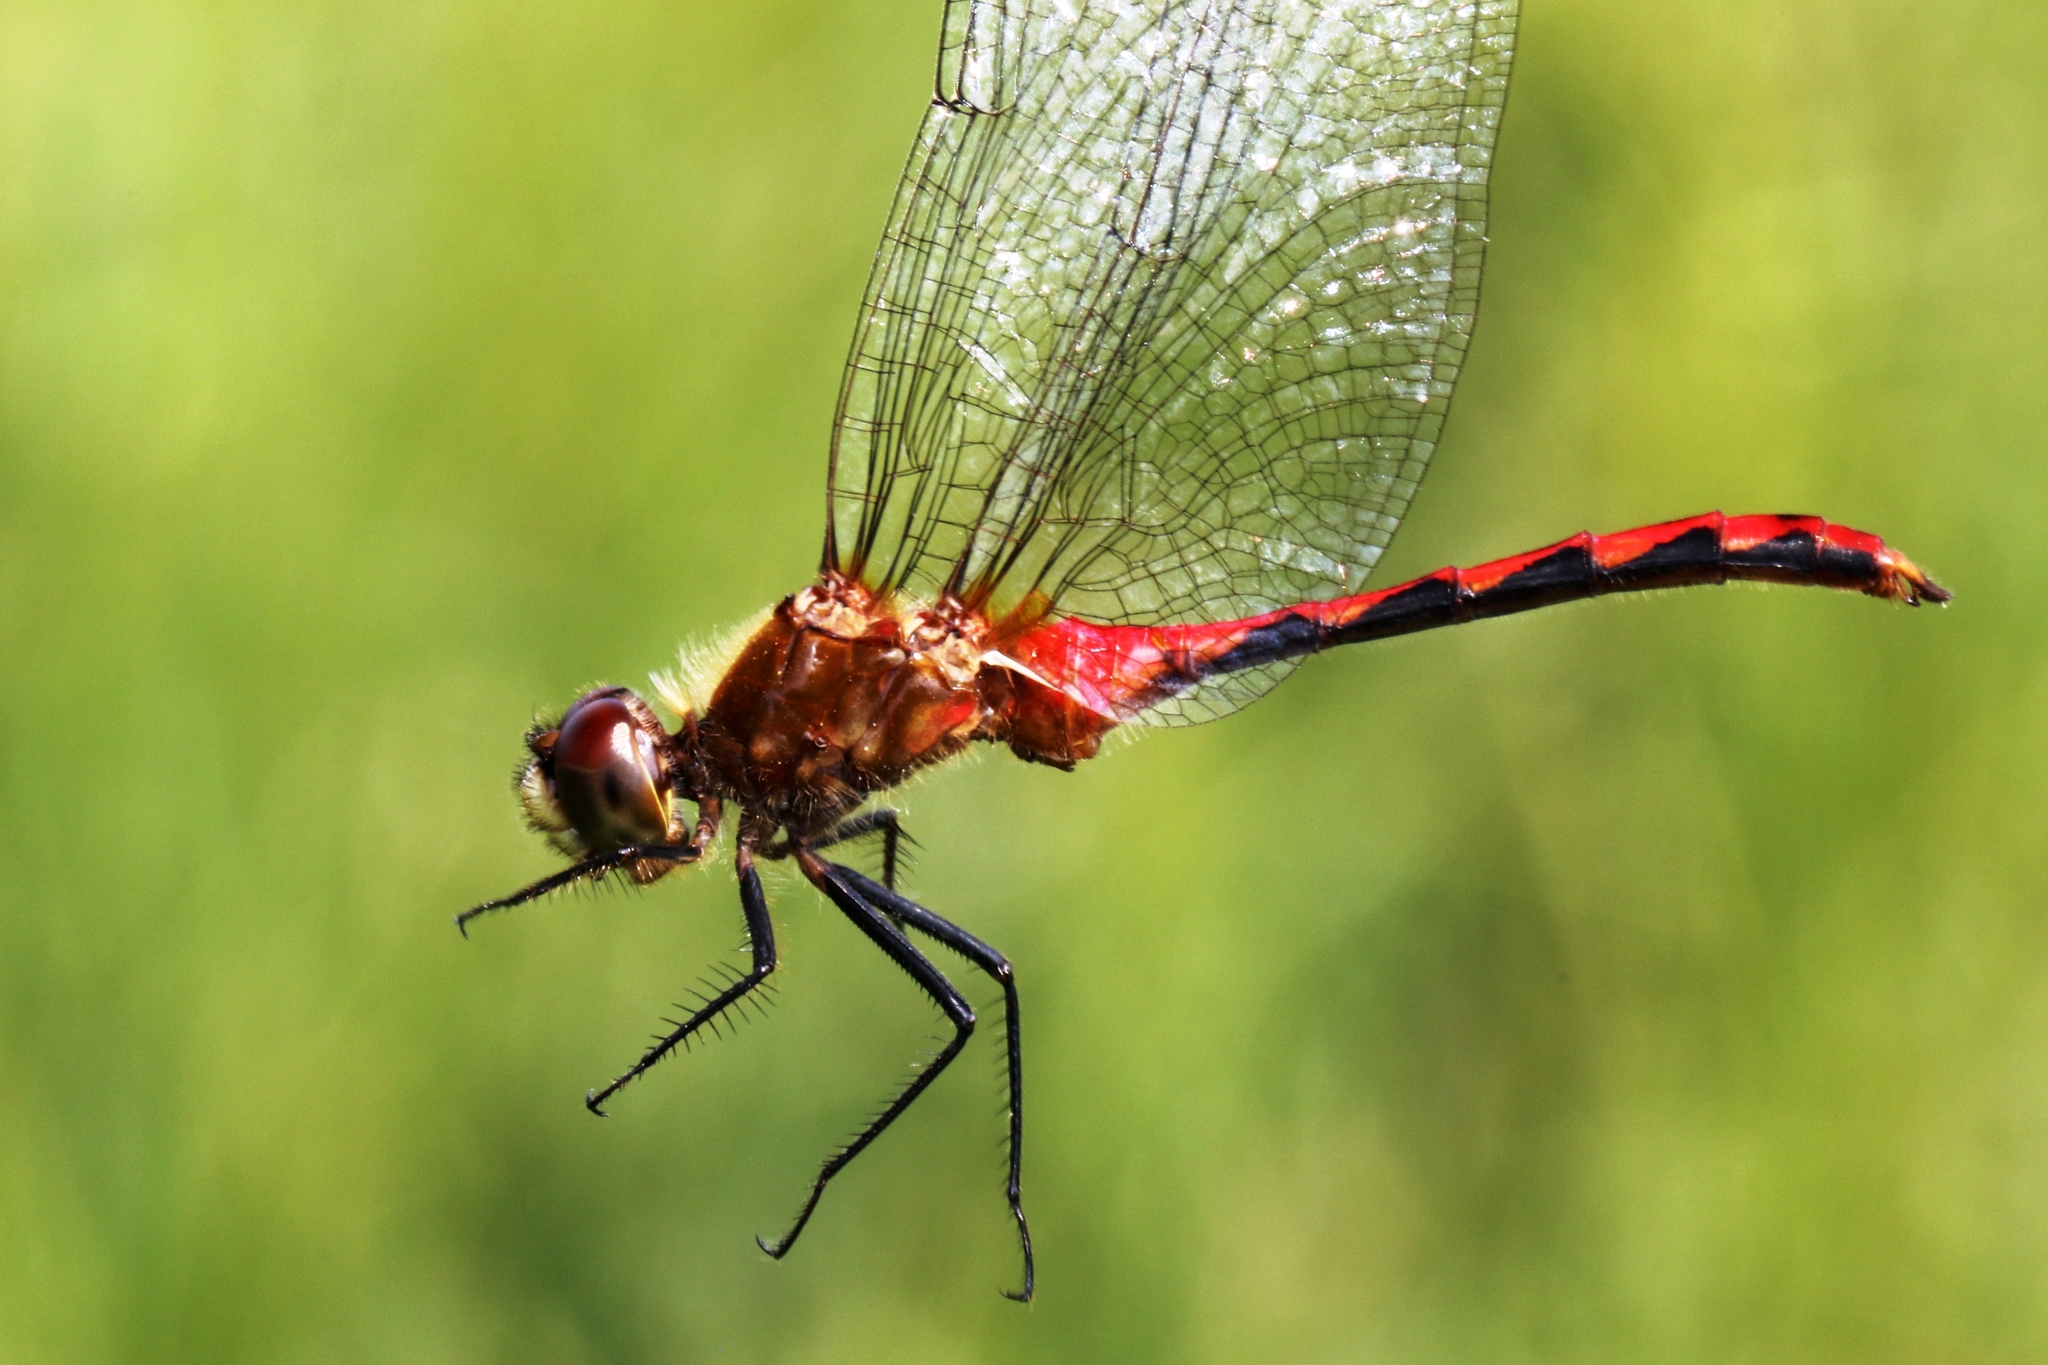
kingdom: Animalia
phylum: Arthropoda
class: Insecta
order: Odonata
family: Libellulidae
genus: Sympetrum
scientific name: Sympetrum obtrusum
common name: White-faced meadowhawk
